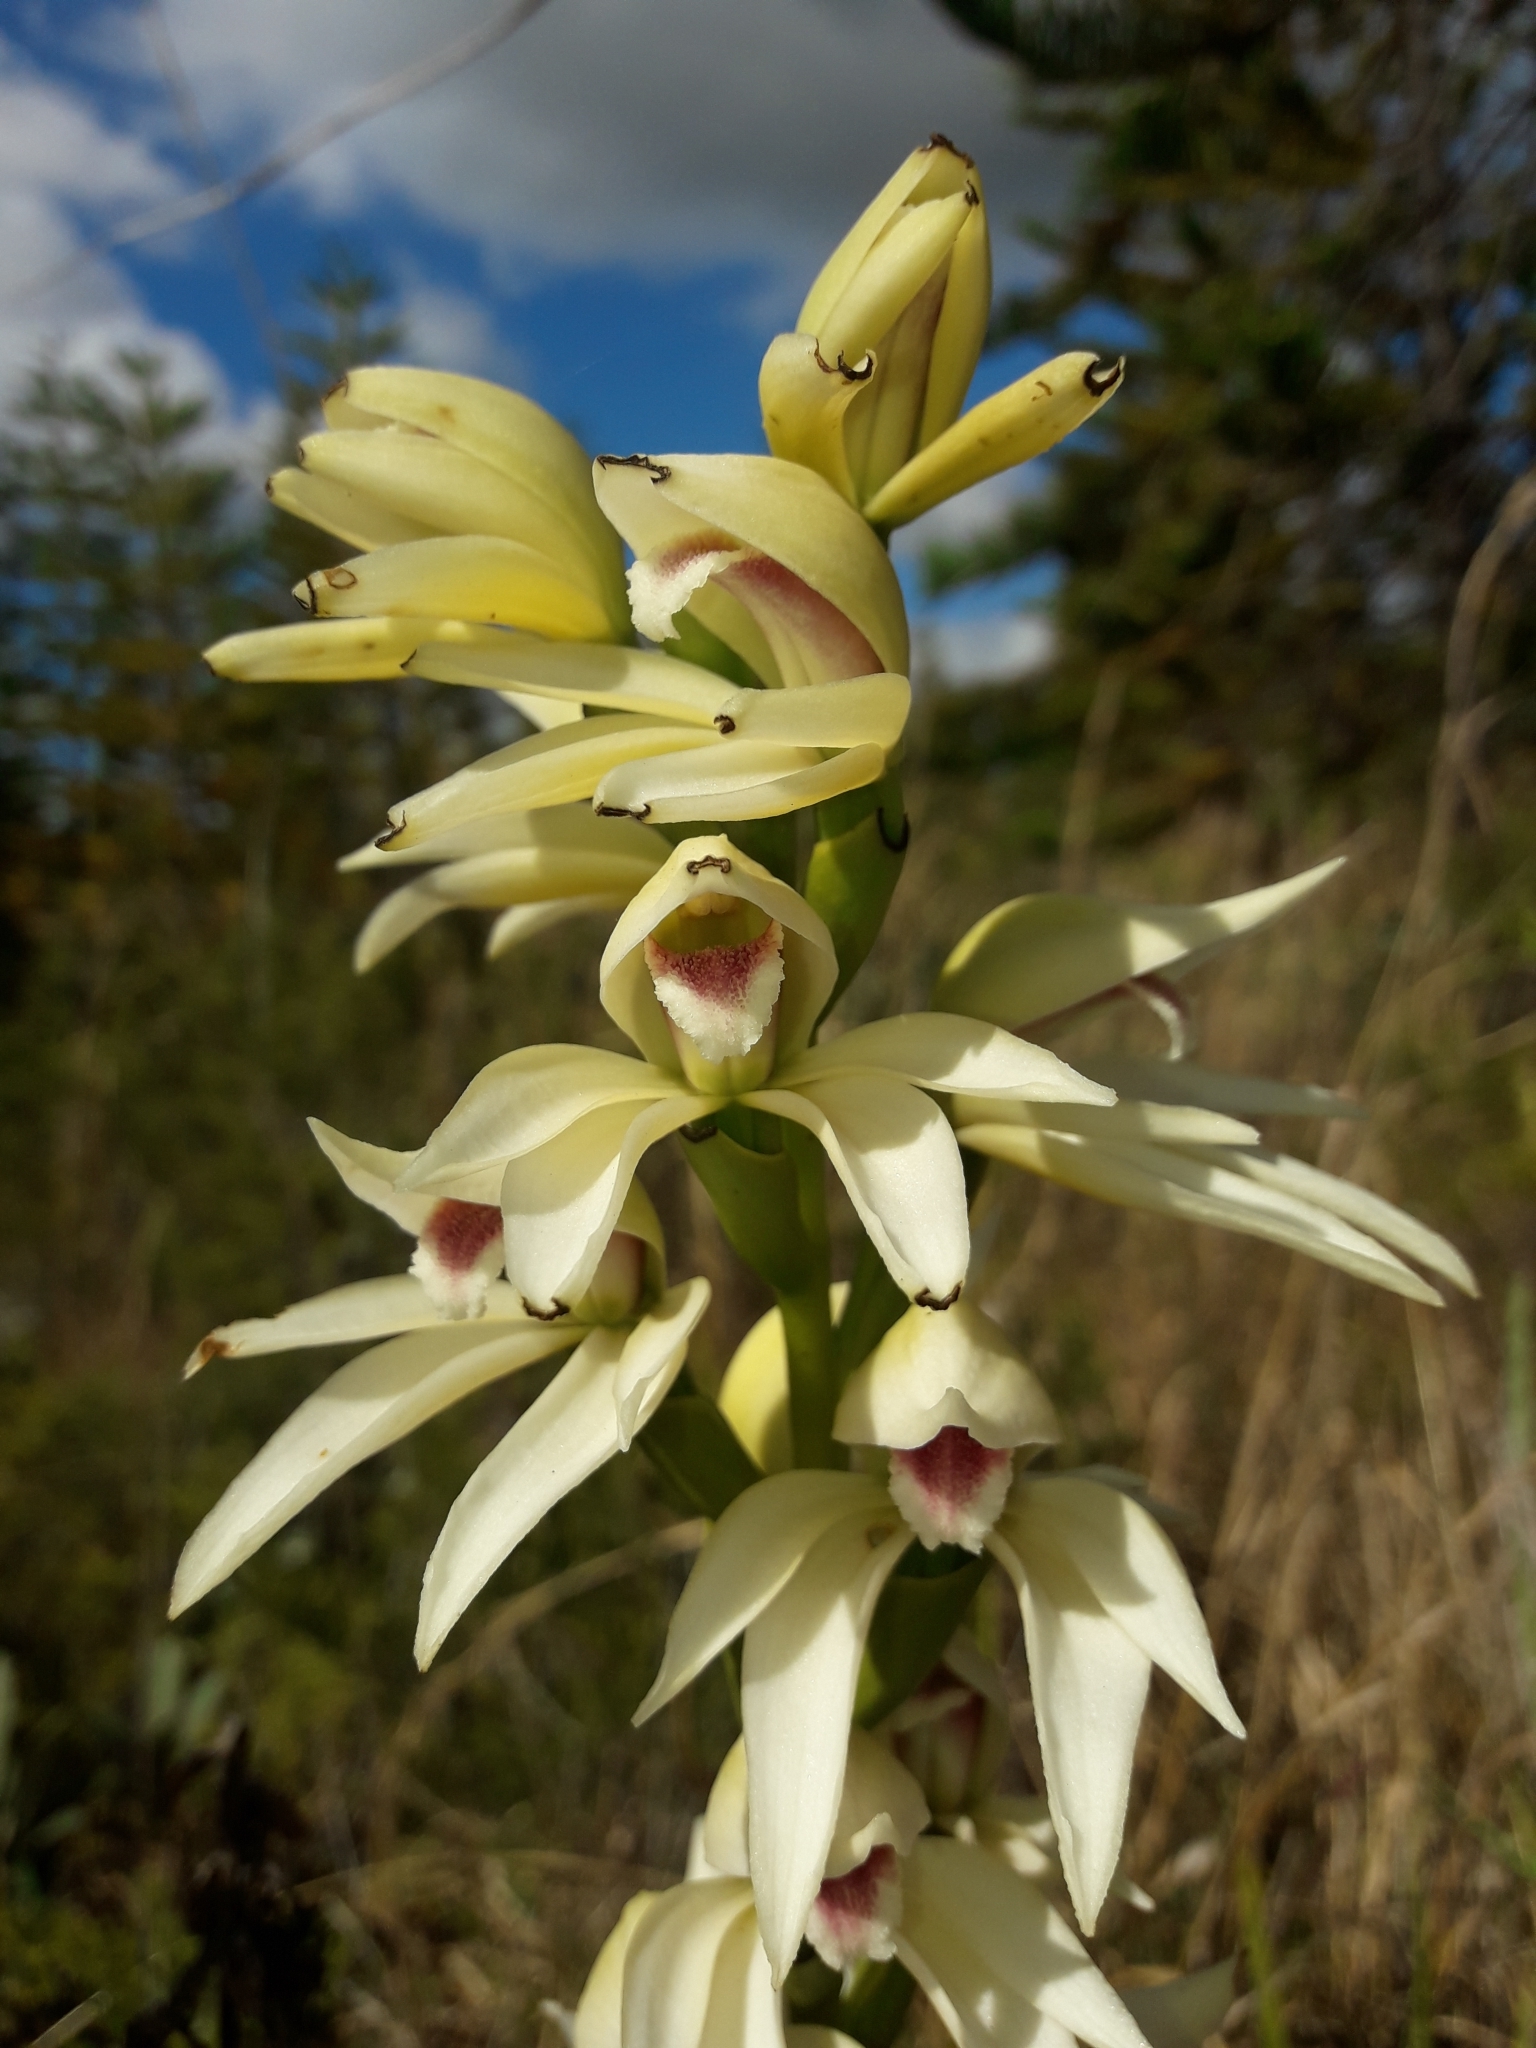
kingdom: Plantae
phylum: Tracheophyta
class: Liliopsida
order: Asparagales
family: Orchidaceae
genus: Megastylis
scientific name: Megastylis gigas
